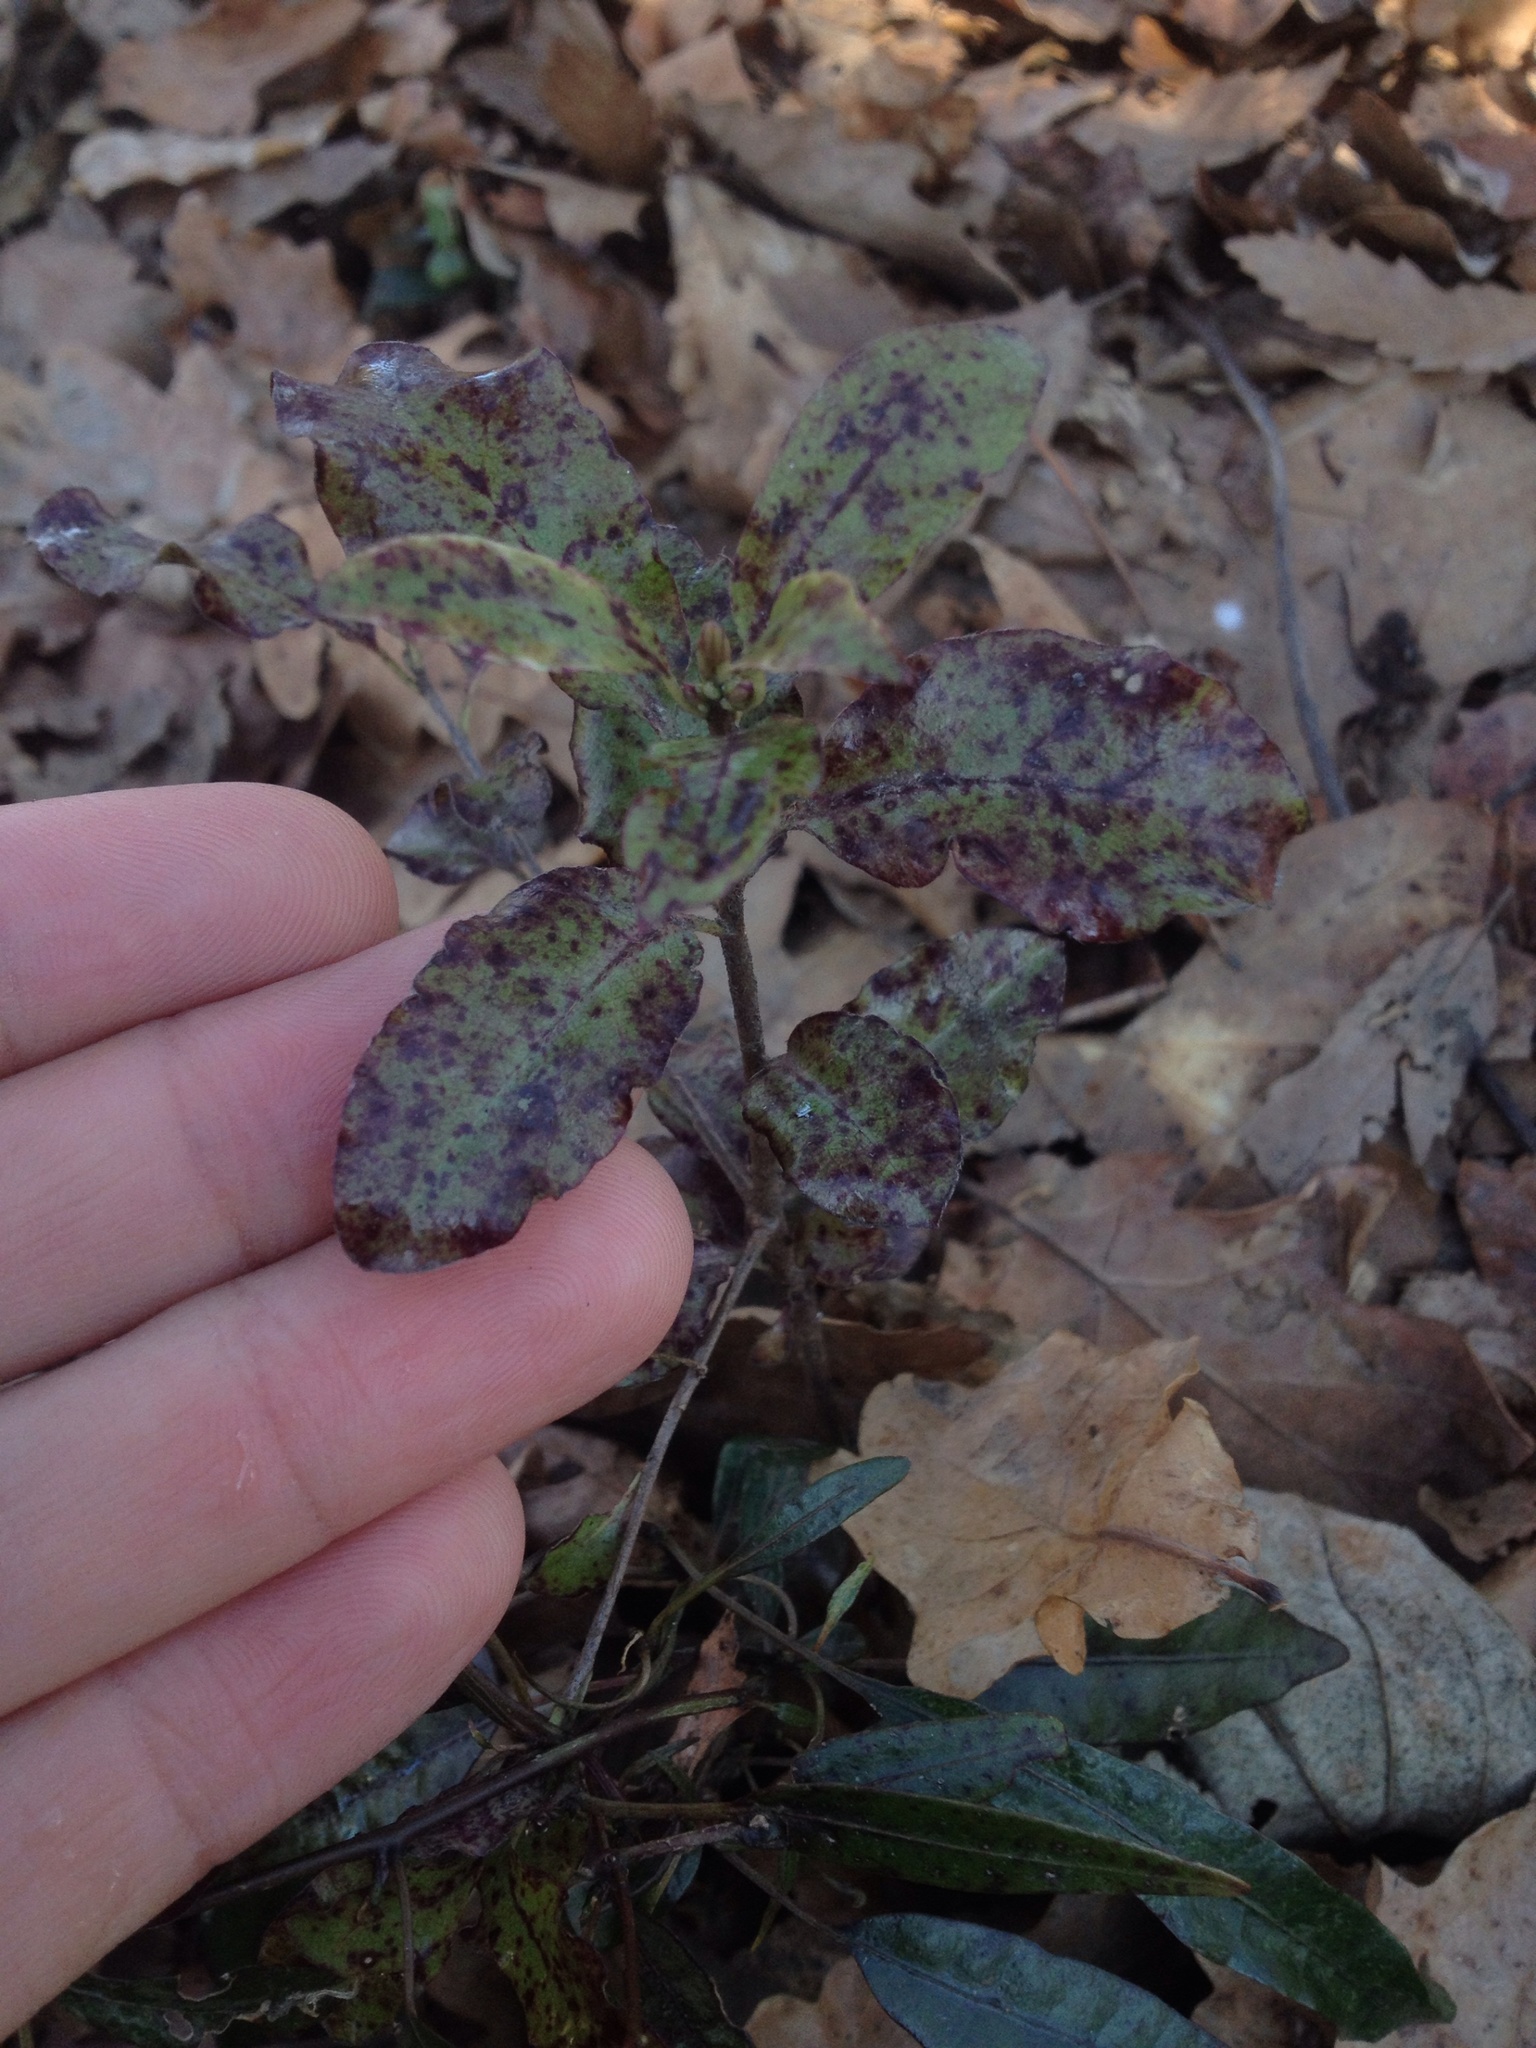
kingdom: Plantae
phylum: Tracheophyta
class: Magnoliopsida
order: Apiales
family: Pittosporaceae
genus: Pittosporum
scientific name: Pittosporum tenuifolium
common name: Kohuhu
